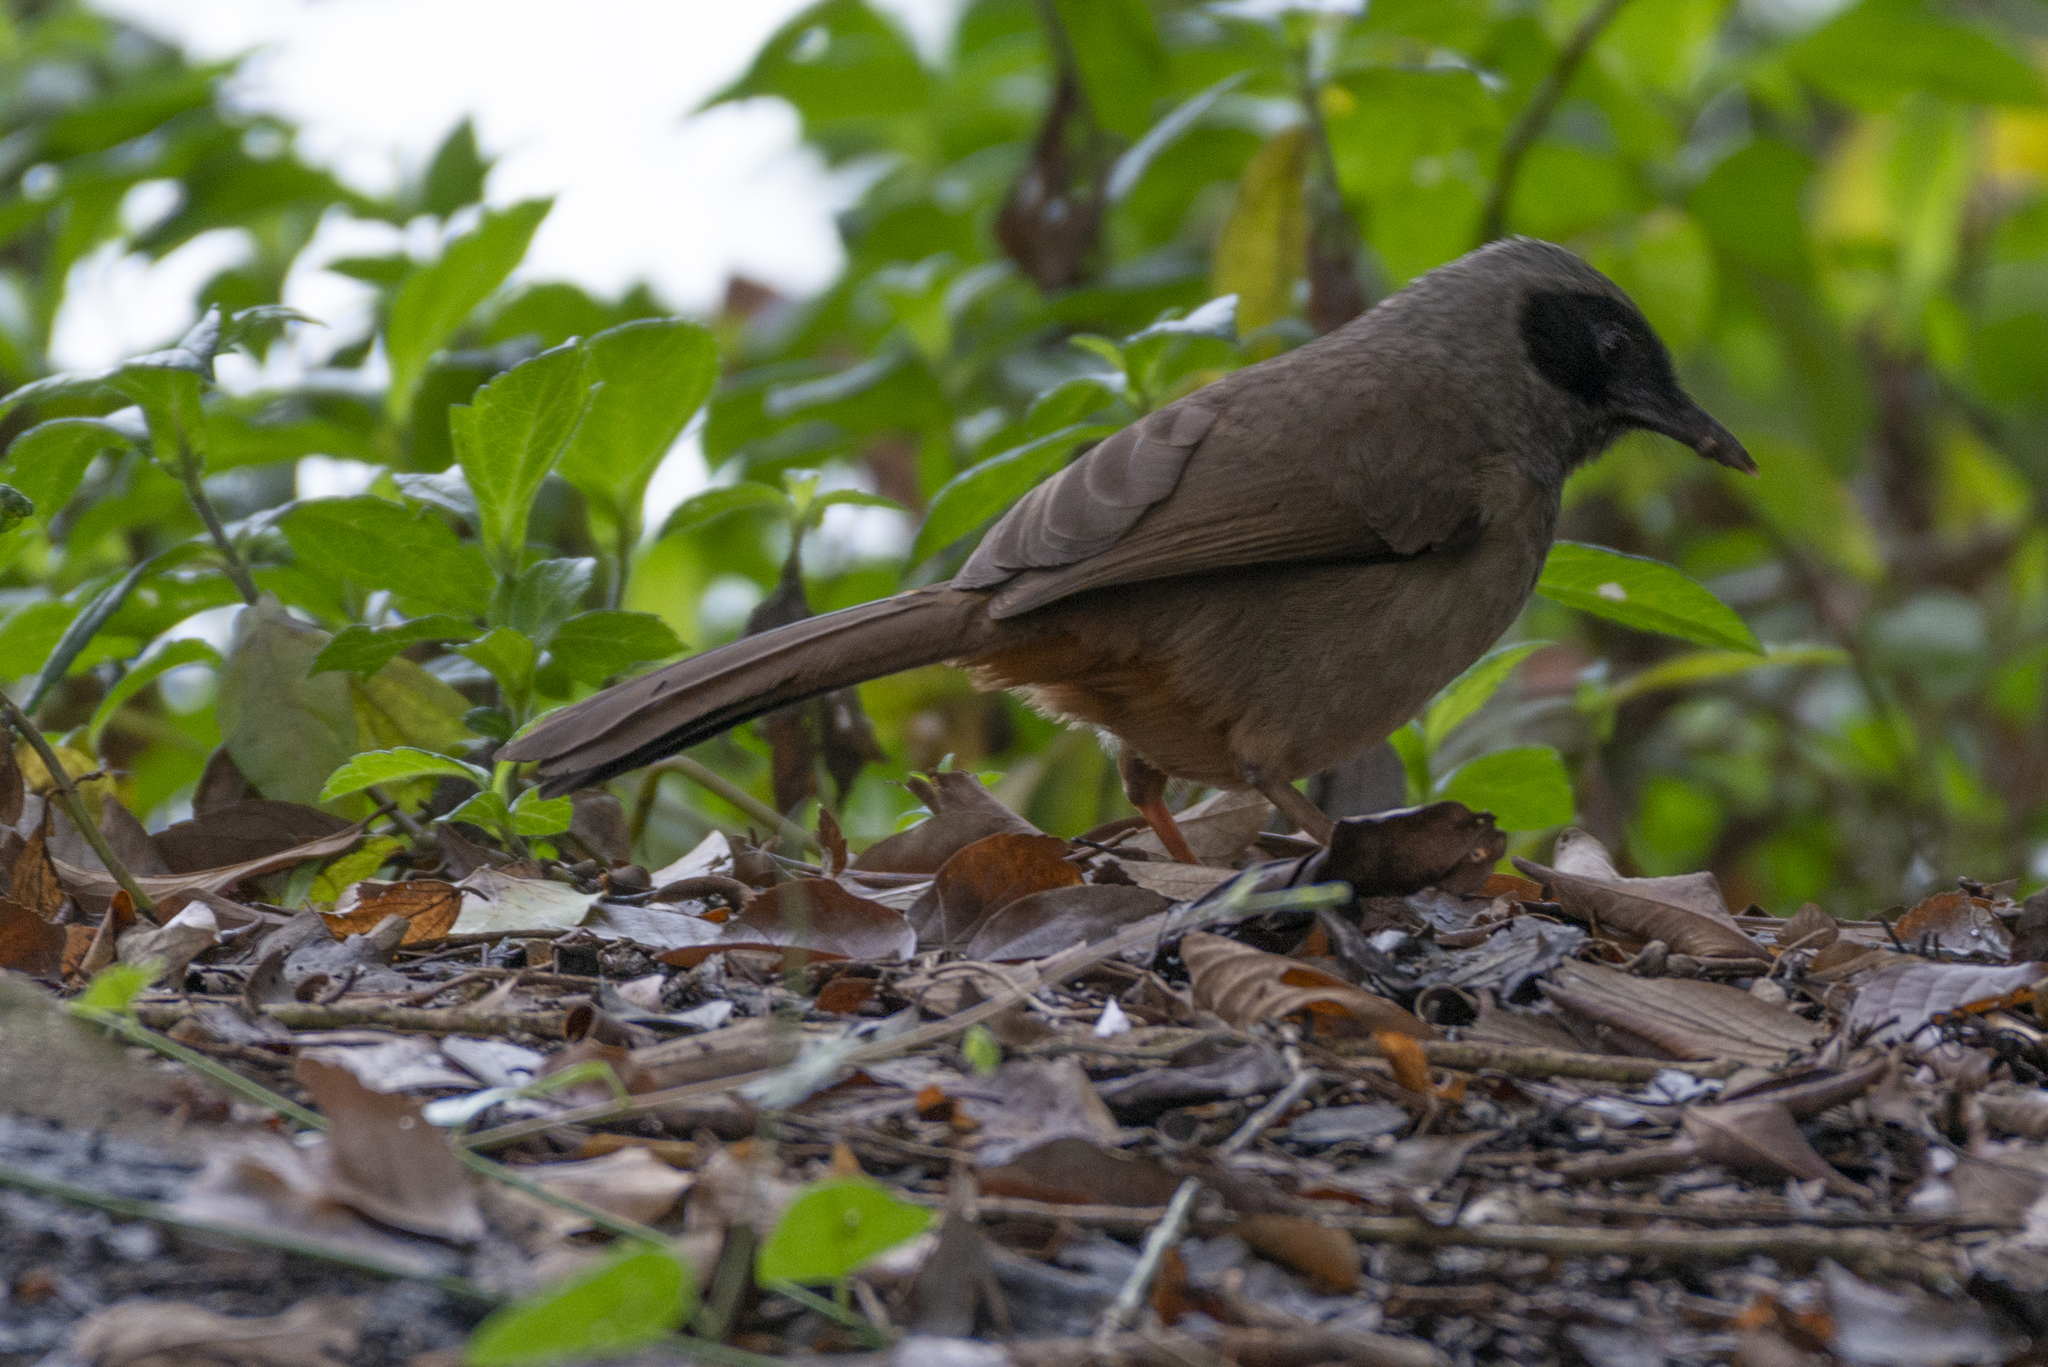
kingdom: Animalia
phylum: Chordata
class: Aves
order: Passeriformes
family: Leiothrichidae
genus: Garrulax
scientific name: Garrulax perspicillatus
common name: Masked laughingthrush
